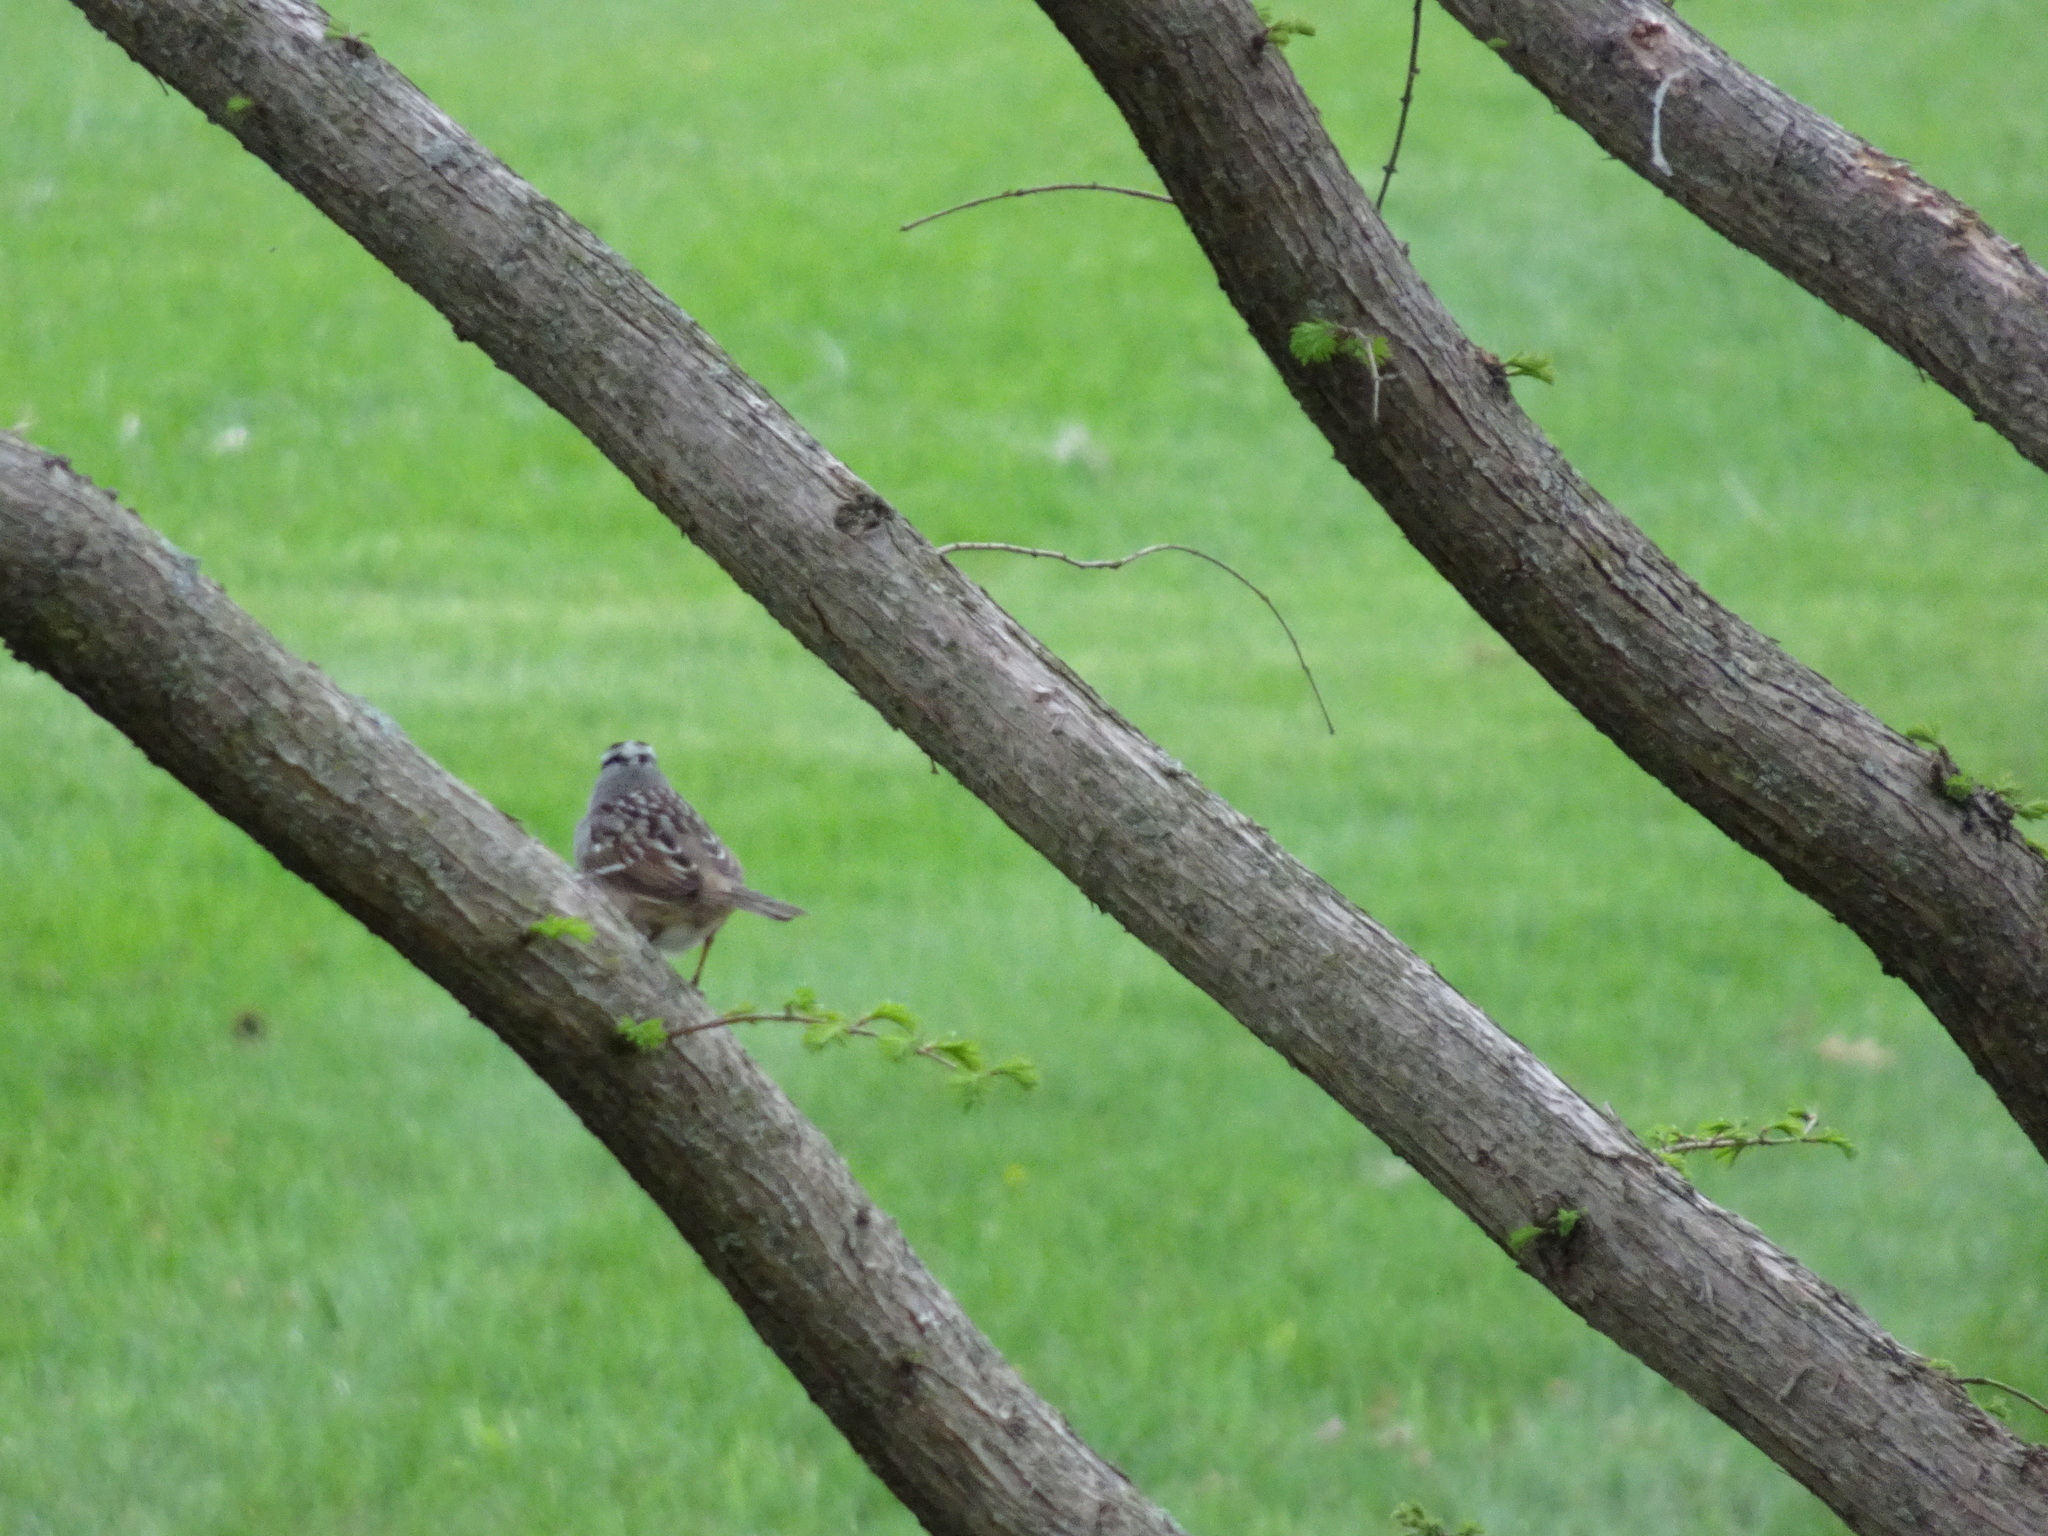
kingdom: Animalia
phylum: Chordata
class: Aves
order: Passeriformes
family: Passerellidae
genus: Zonotrichia
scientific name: Zonotrichia leucophrys
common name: White-crowned sparrow
